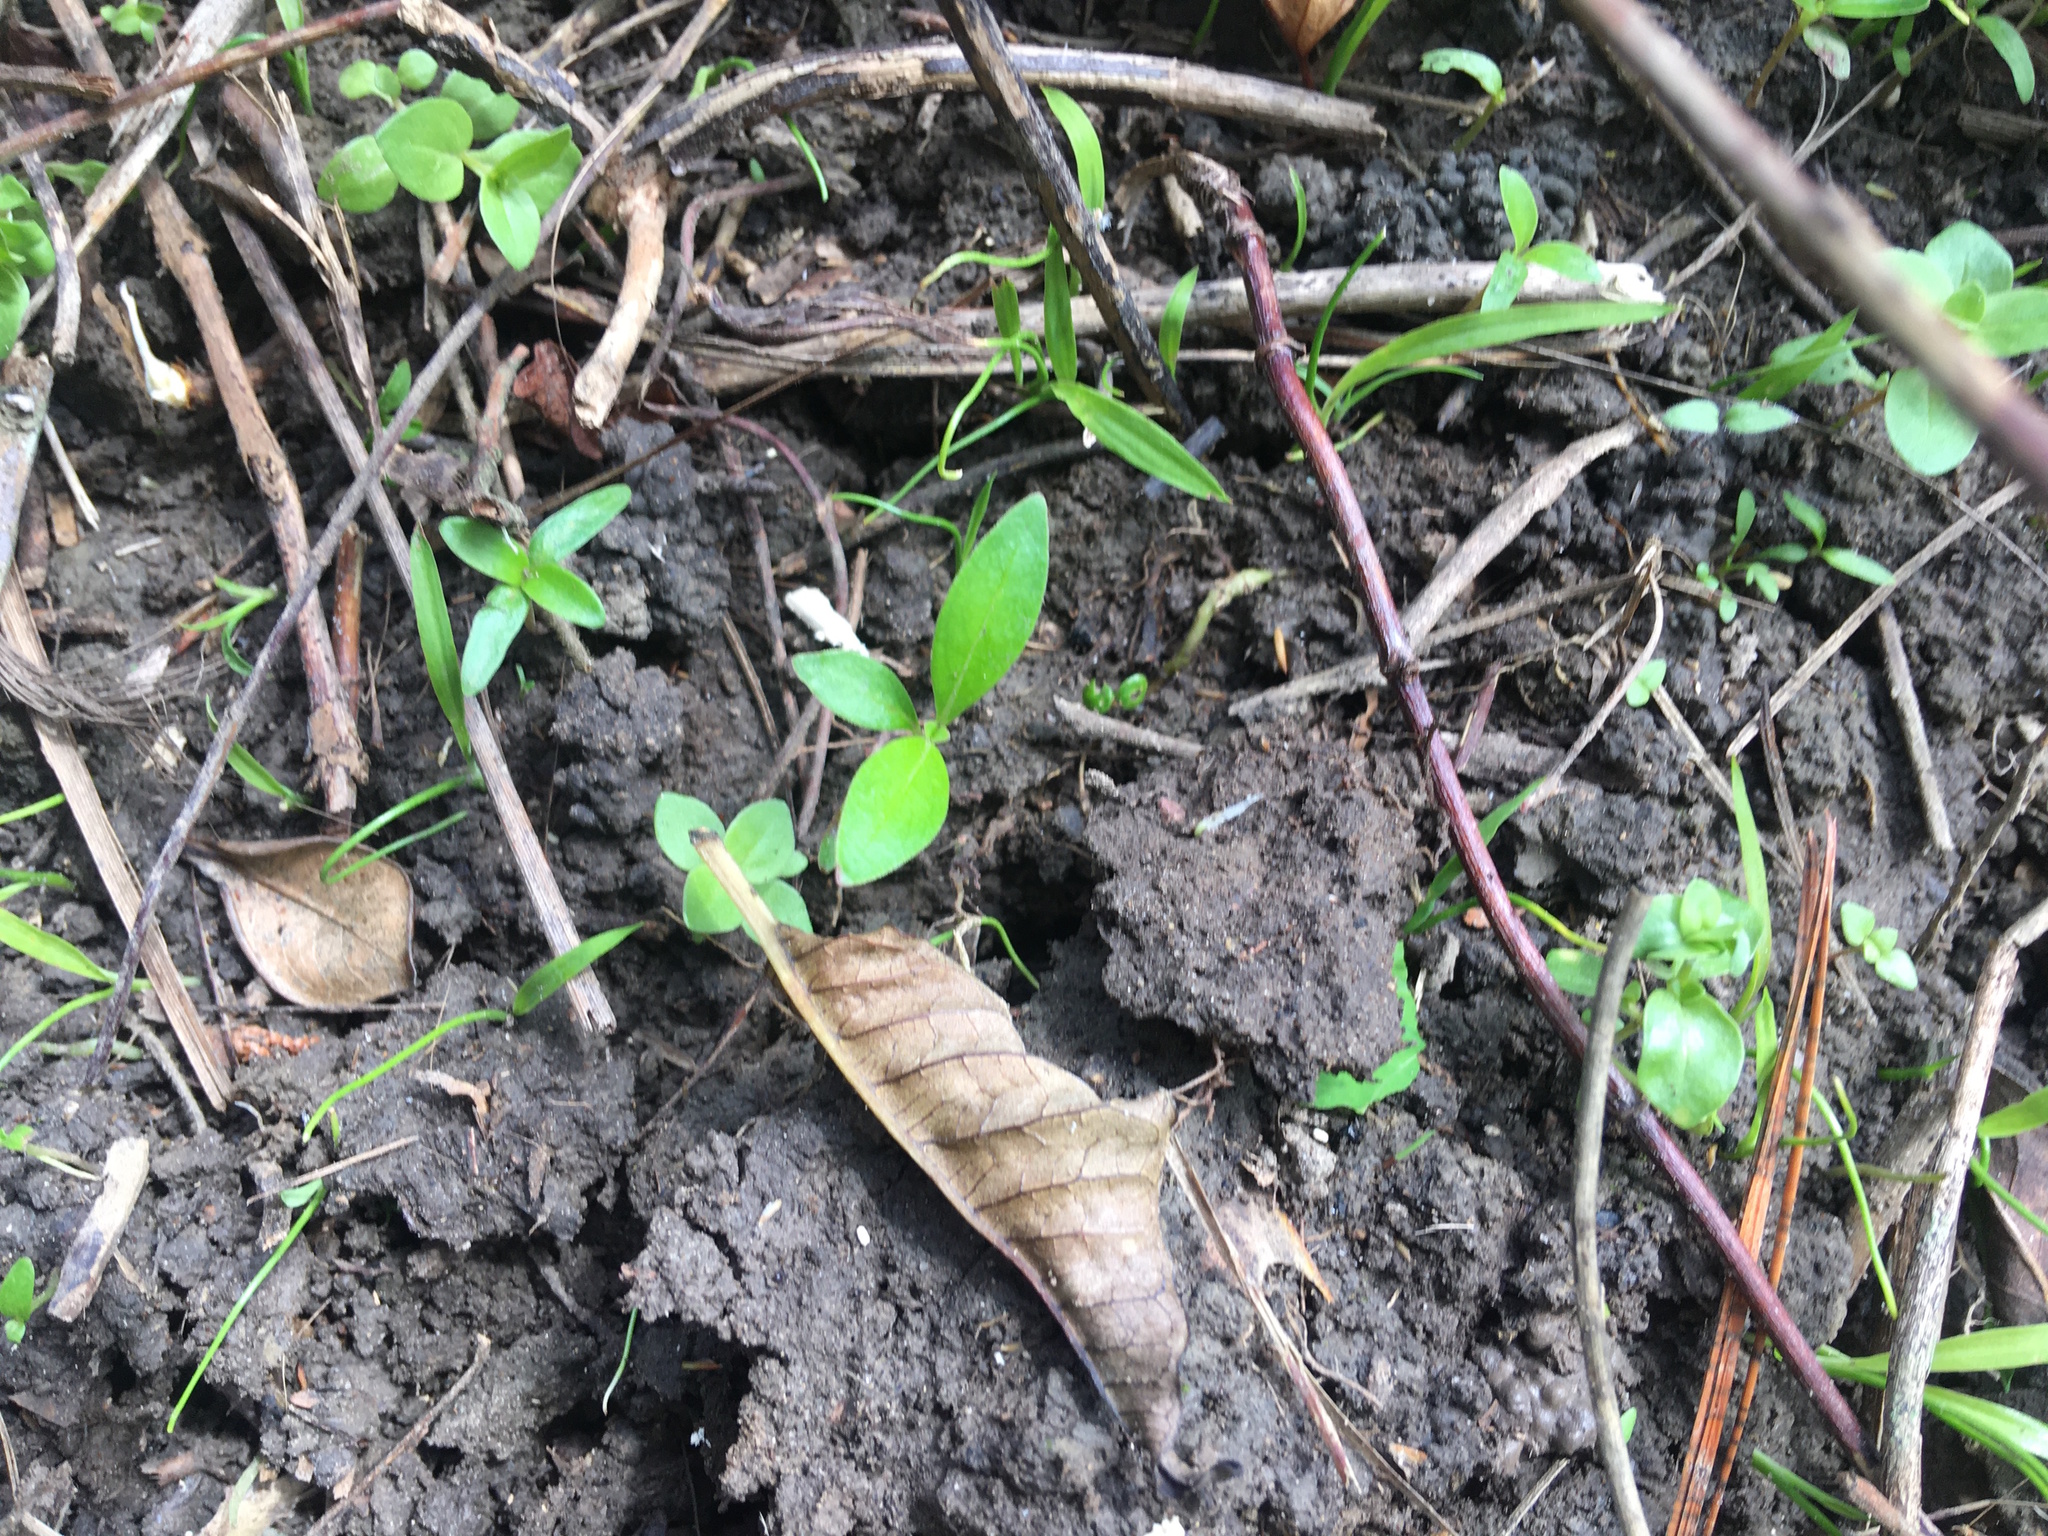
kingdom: Plantae
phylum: Tracheophyta
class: Liliopsida
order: Asparagales
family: Asparagaceae
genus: Cordyline
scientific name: Cordyline australis
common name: Cabbage-palm
